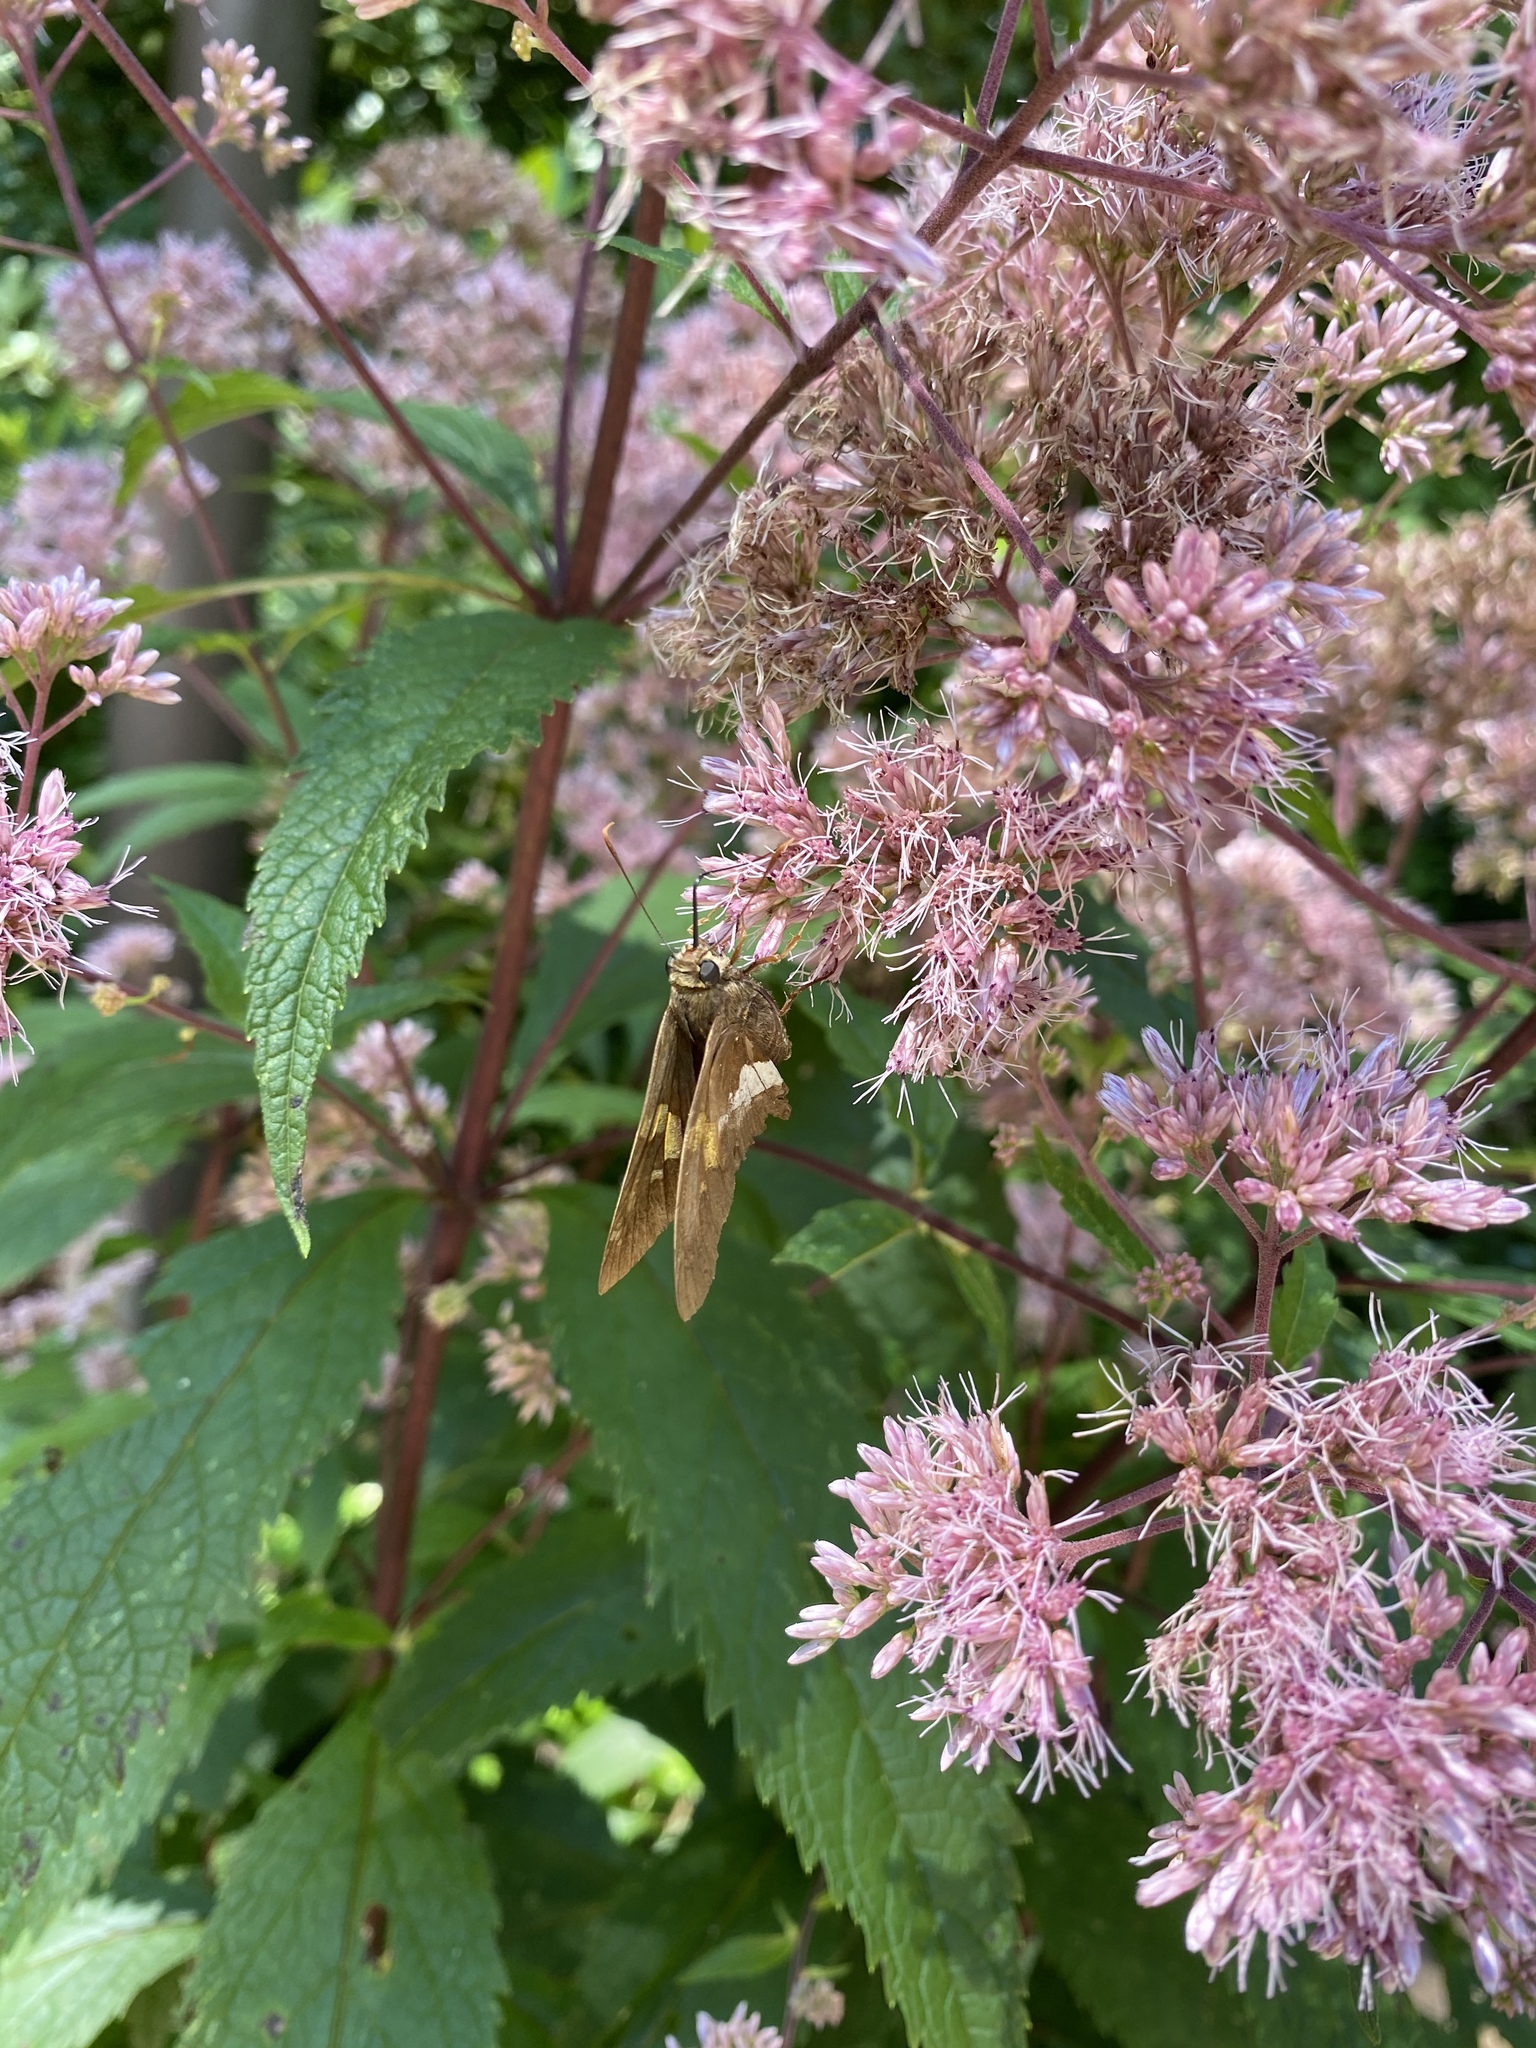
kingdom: Animalia
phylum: Arthropoda
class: Insecta
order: Lepidoptera
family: Hesperiidae
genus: Epargyreus
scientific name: Epargyreus clarus
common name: Silver-spotted skipper
